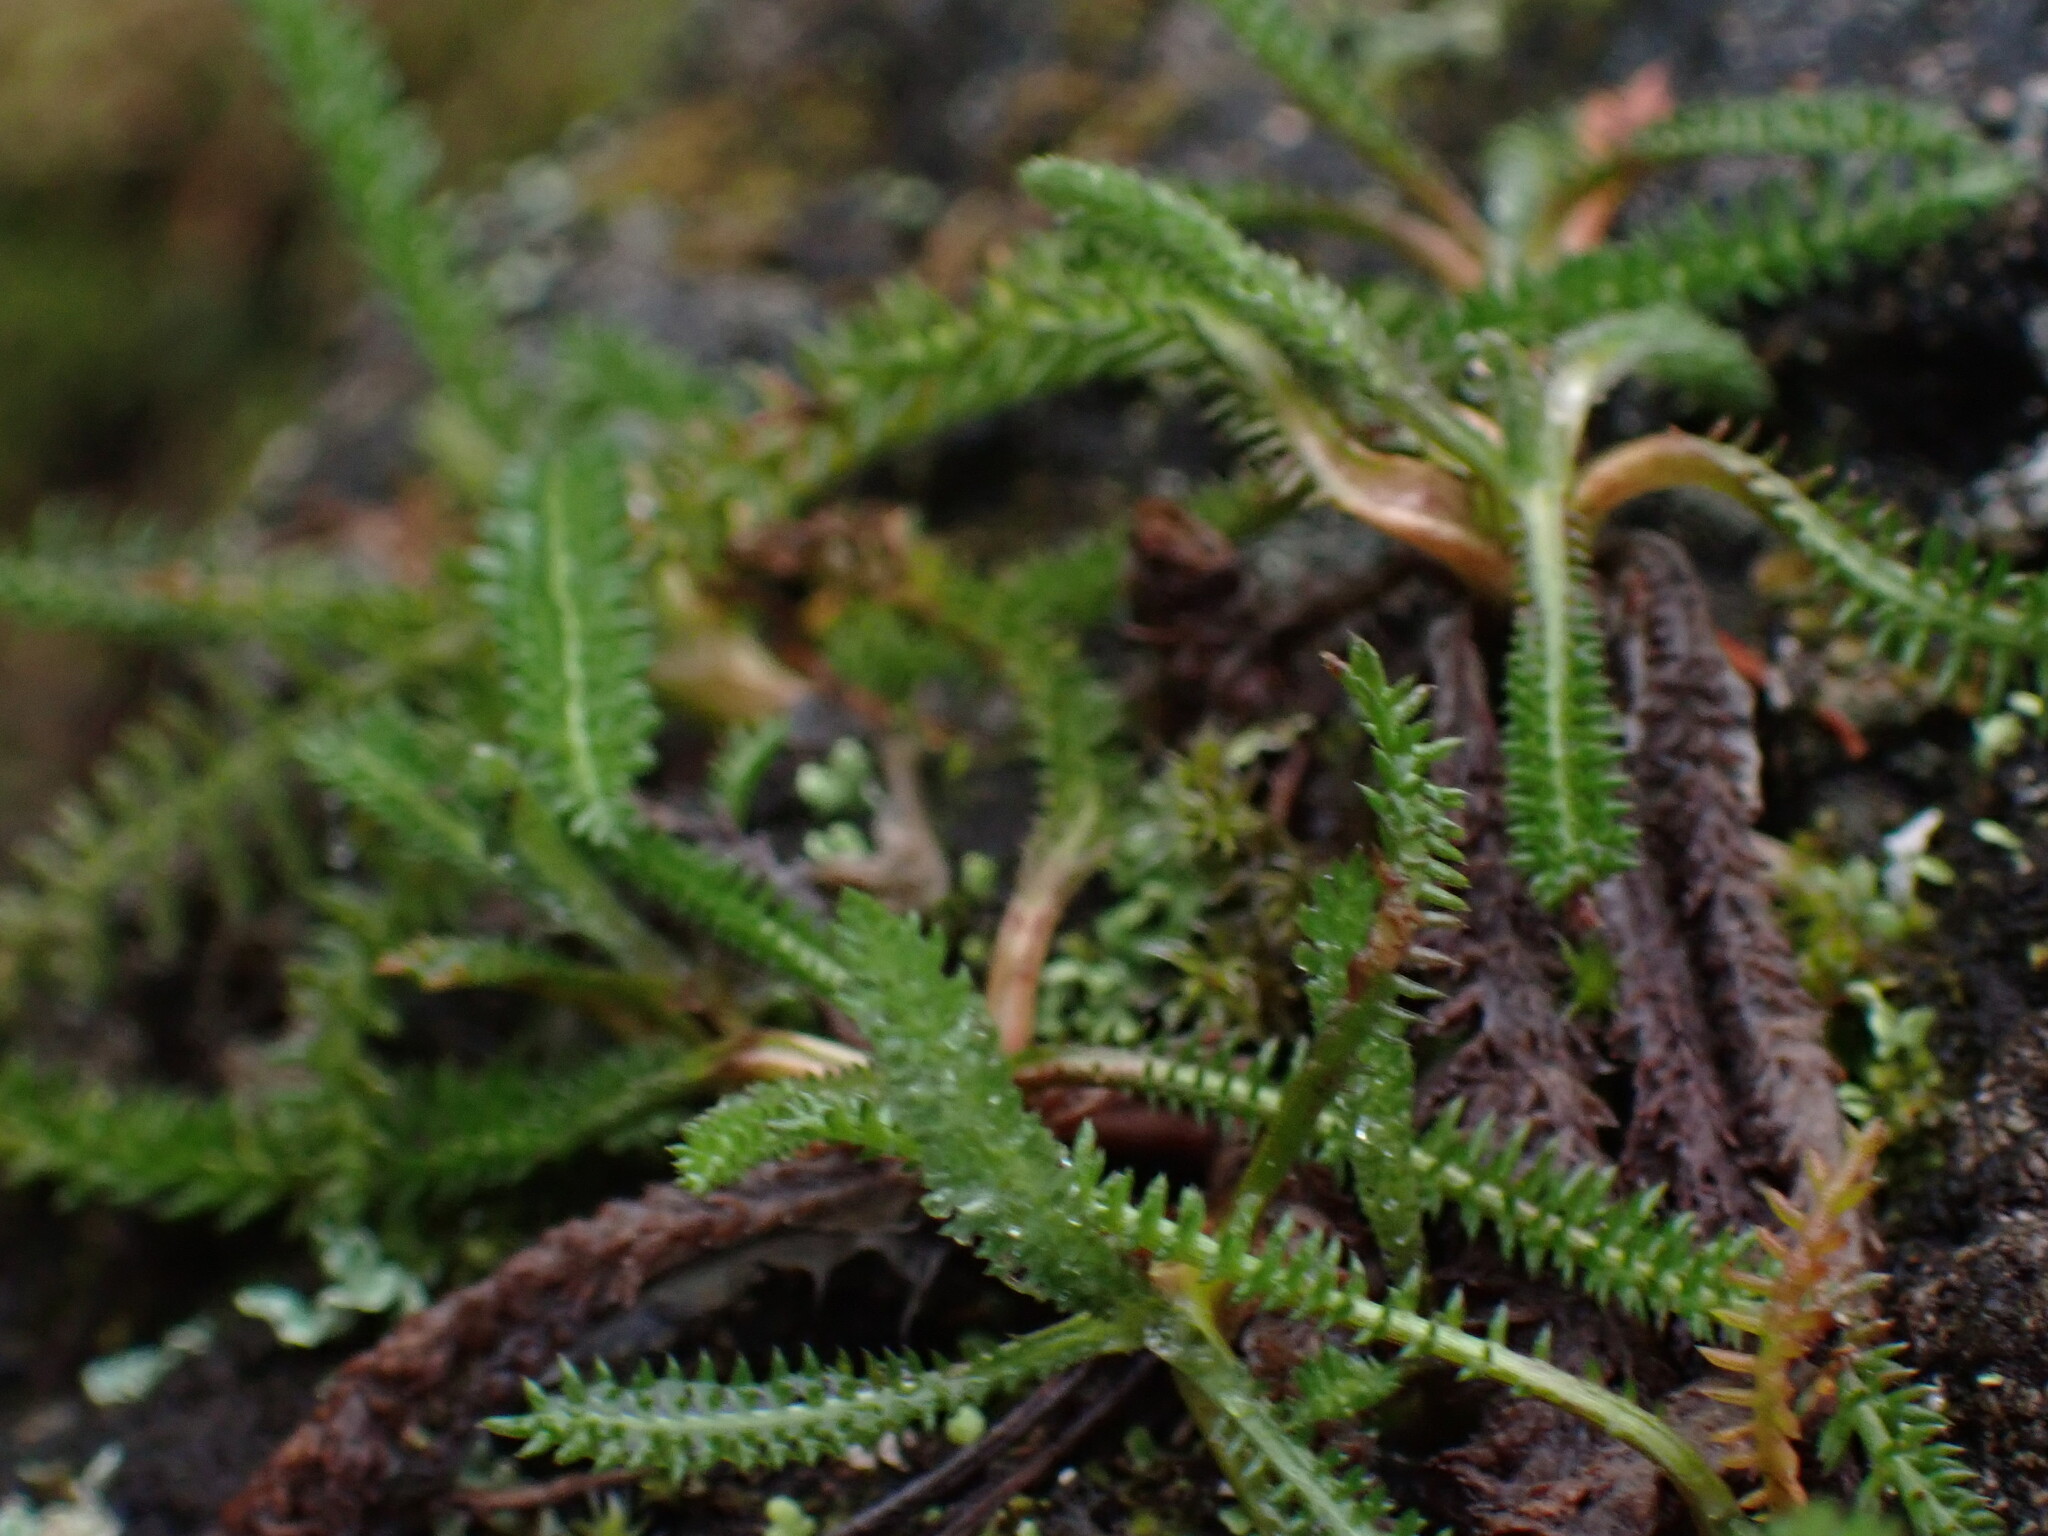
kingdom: Plantae
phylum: Tracheophyta
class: Magnoliopsida
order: Asterales
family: Asteraceae
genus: Achillea
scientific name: Achillea millefolium
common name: Yarrow
